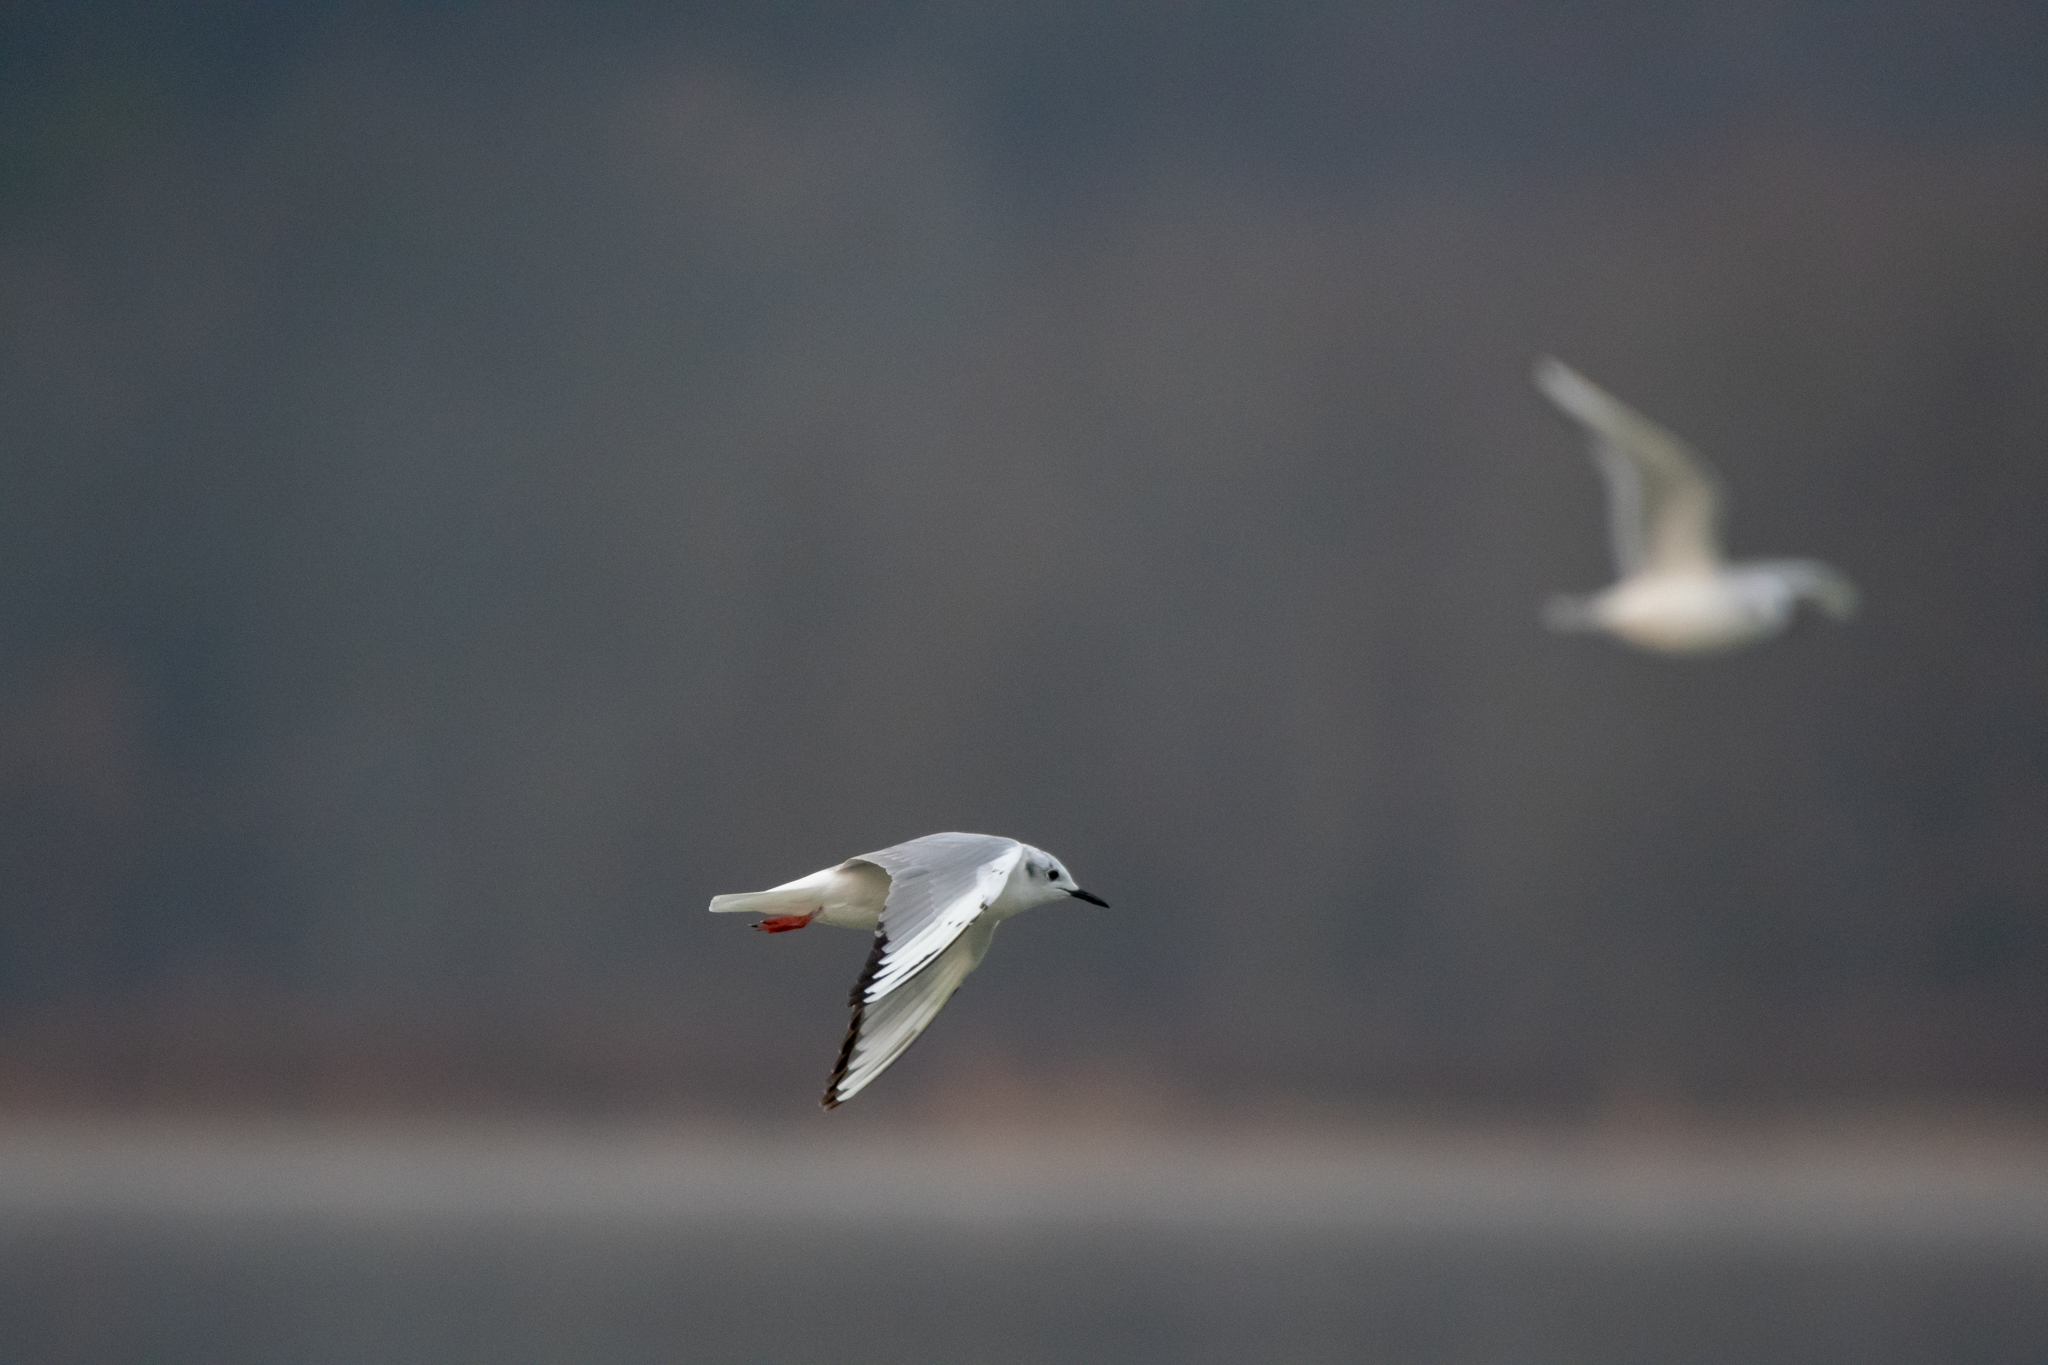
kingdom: Animalia
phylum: Chordata
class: Aves
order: Charadriiformes
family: Laridae
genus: Chroicocephalus
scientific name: Chroicocephalus philadelphia
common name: Bonaparte's gull
